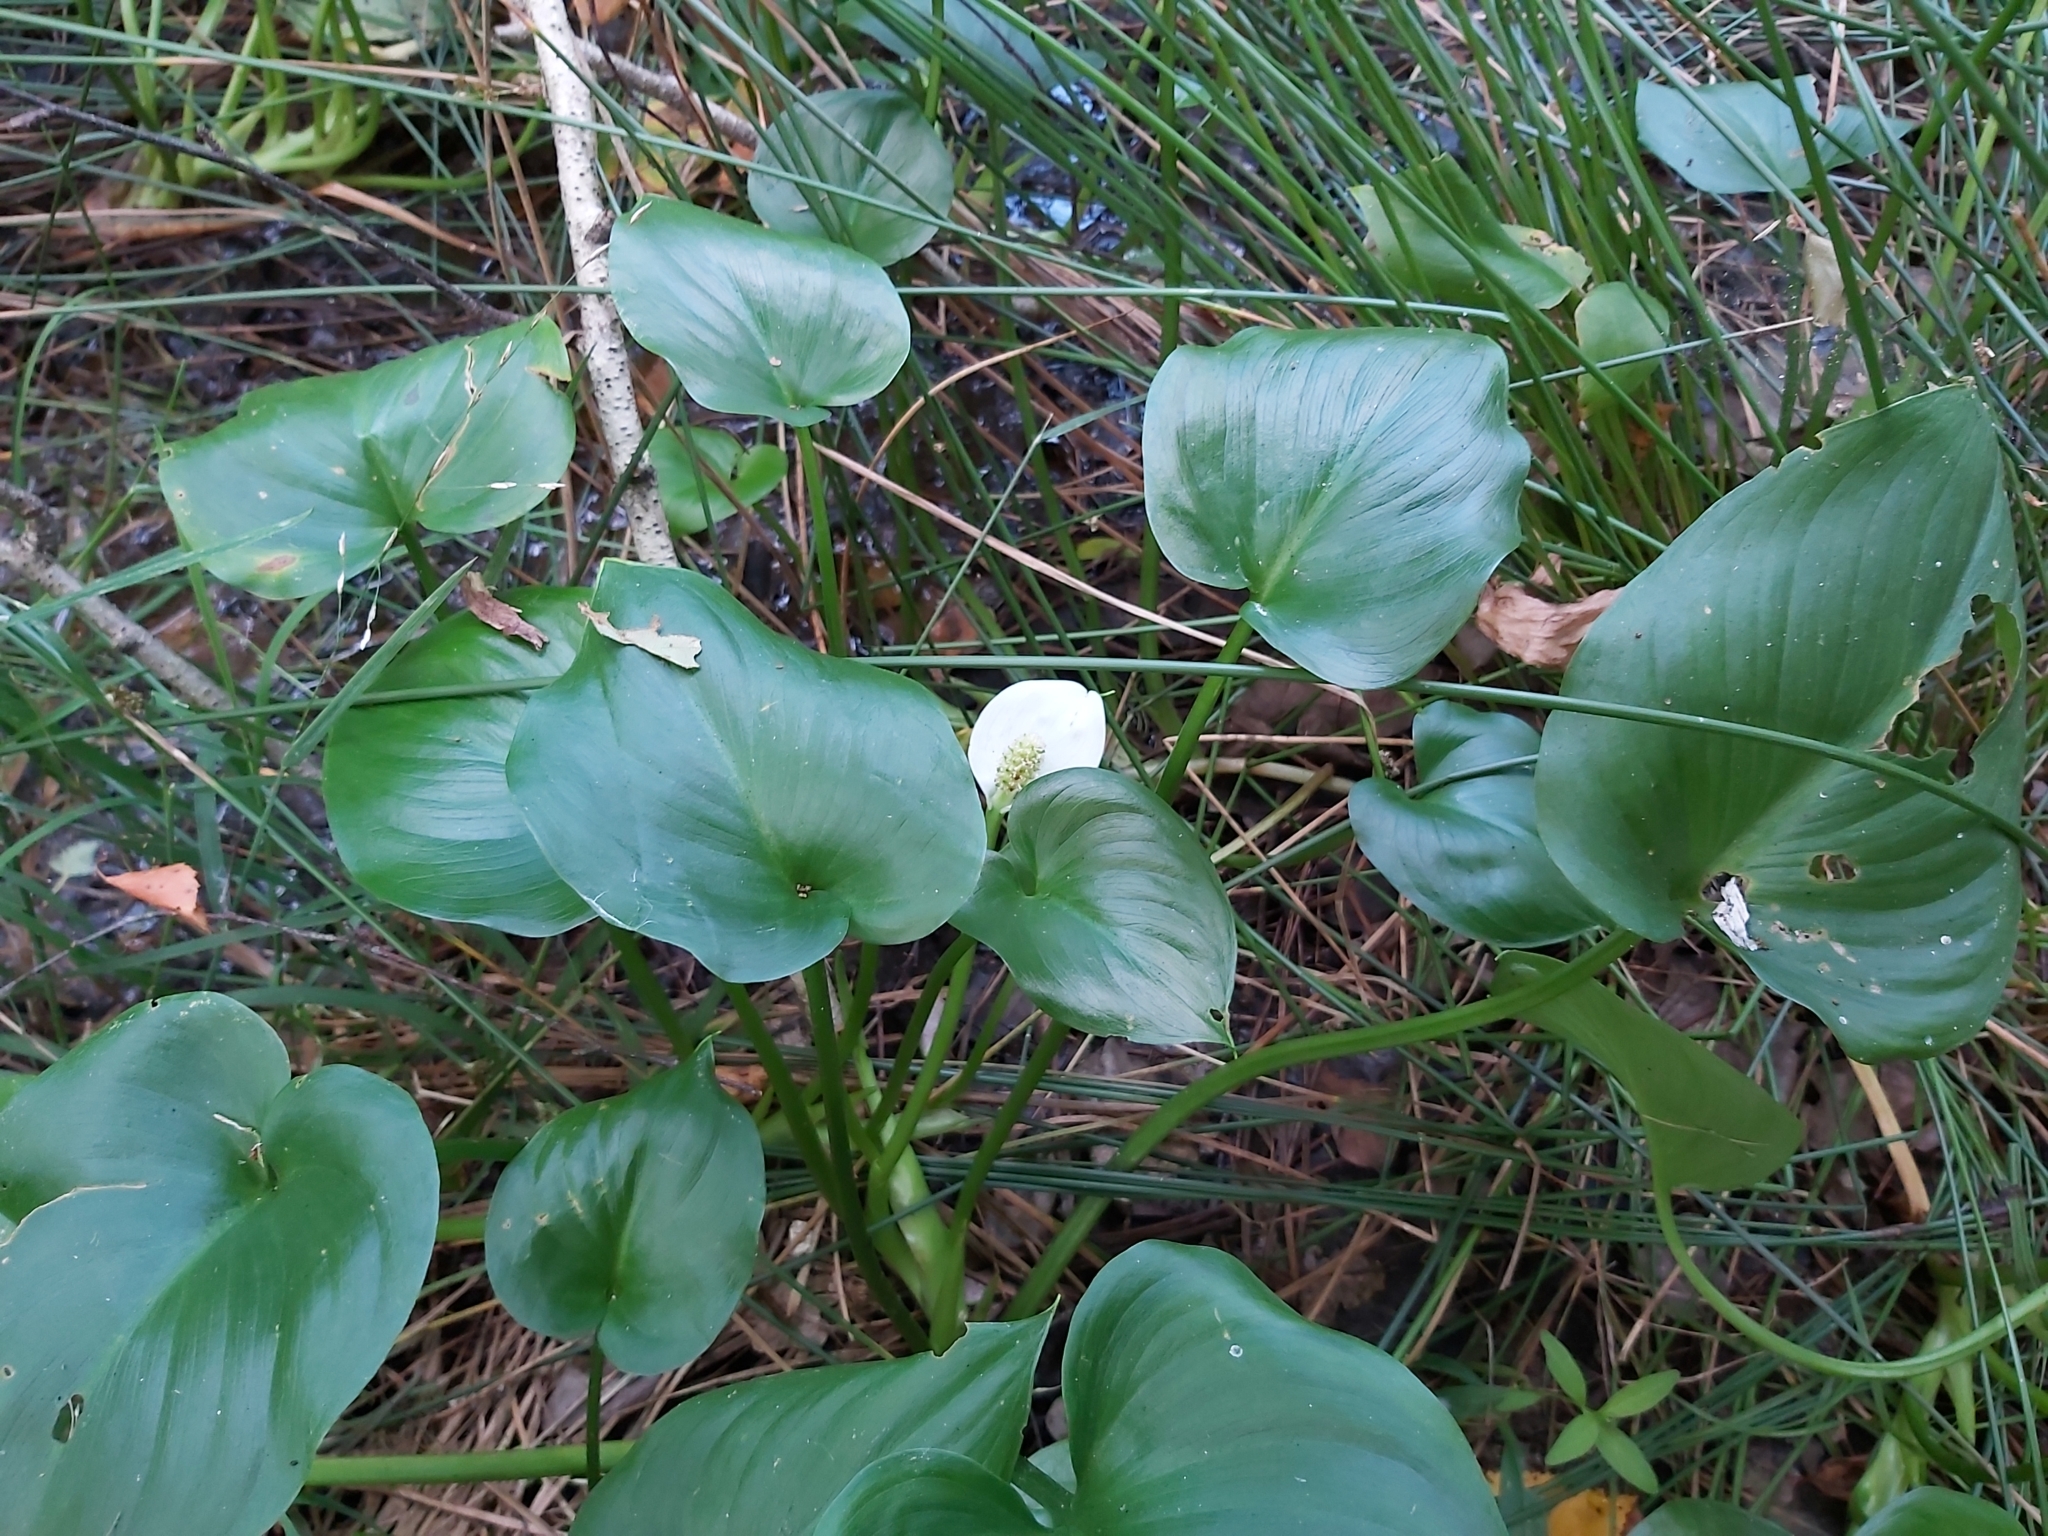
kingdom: Plantae
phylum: Tracheophyta
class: Liliopsida
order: Alismatales
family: Araceae
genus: Calla
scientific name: Calla palustris
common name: Bog arum
